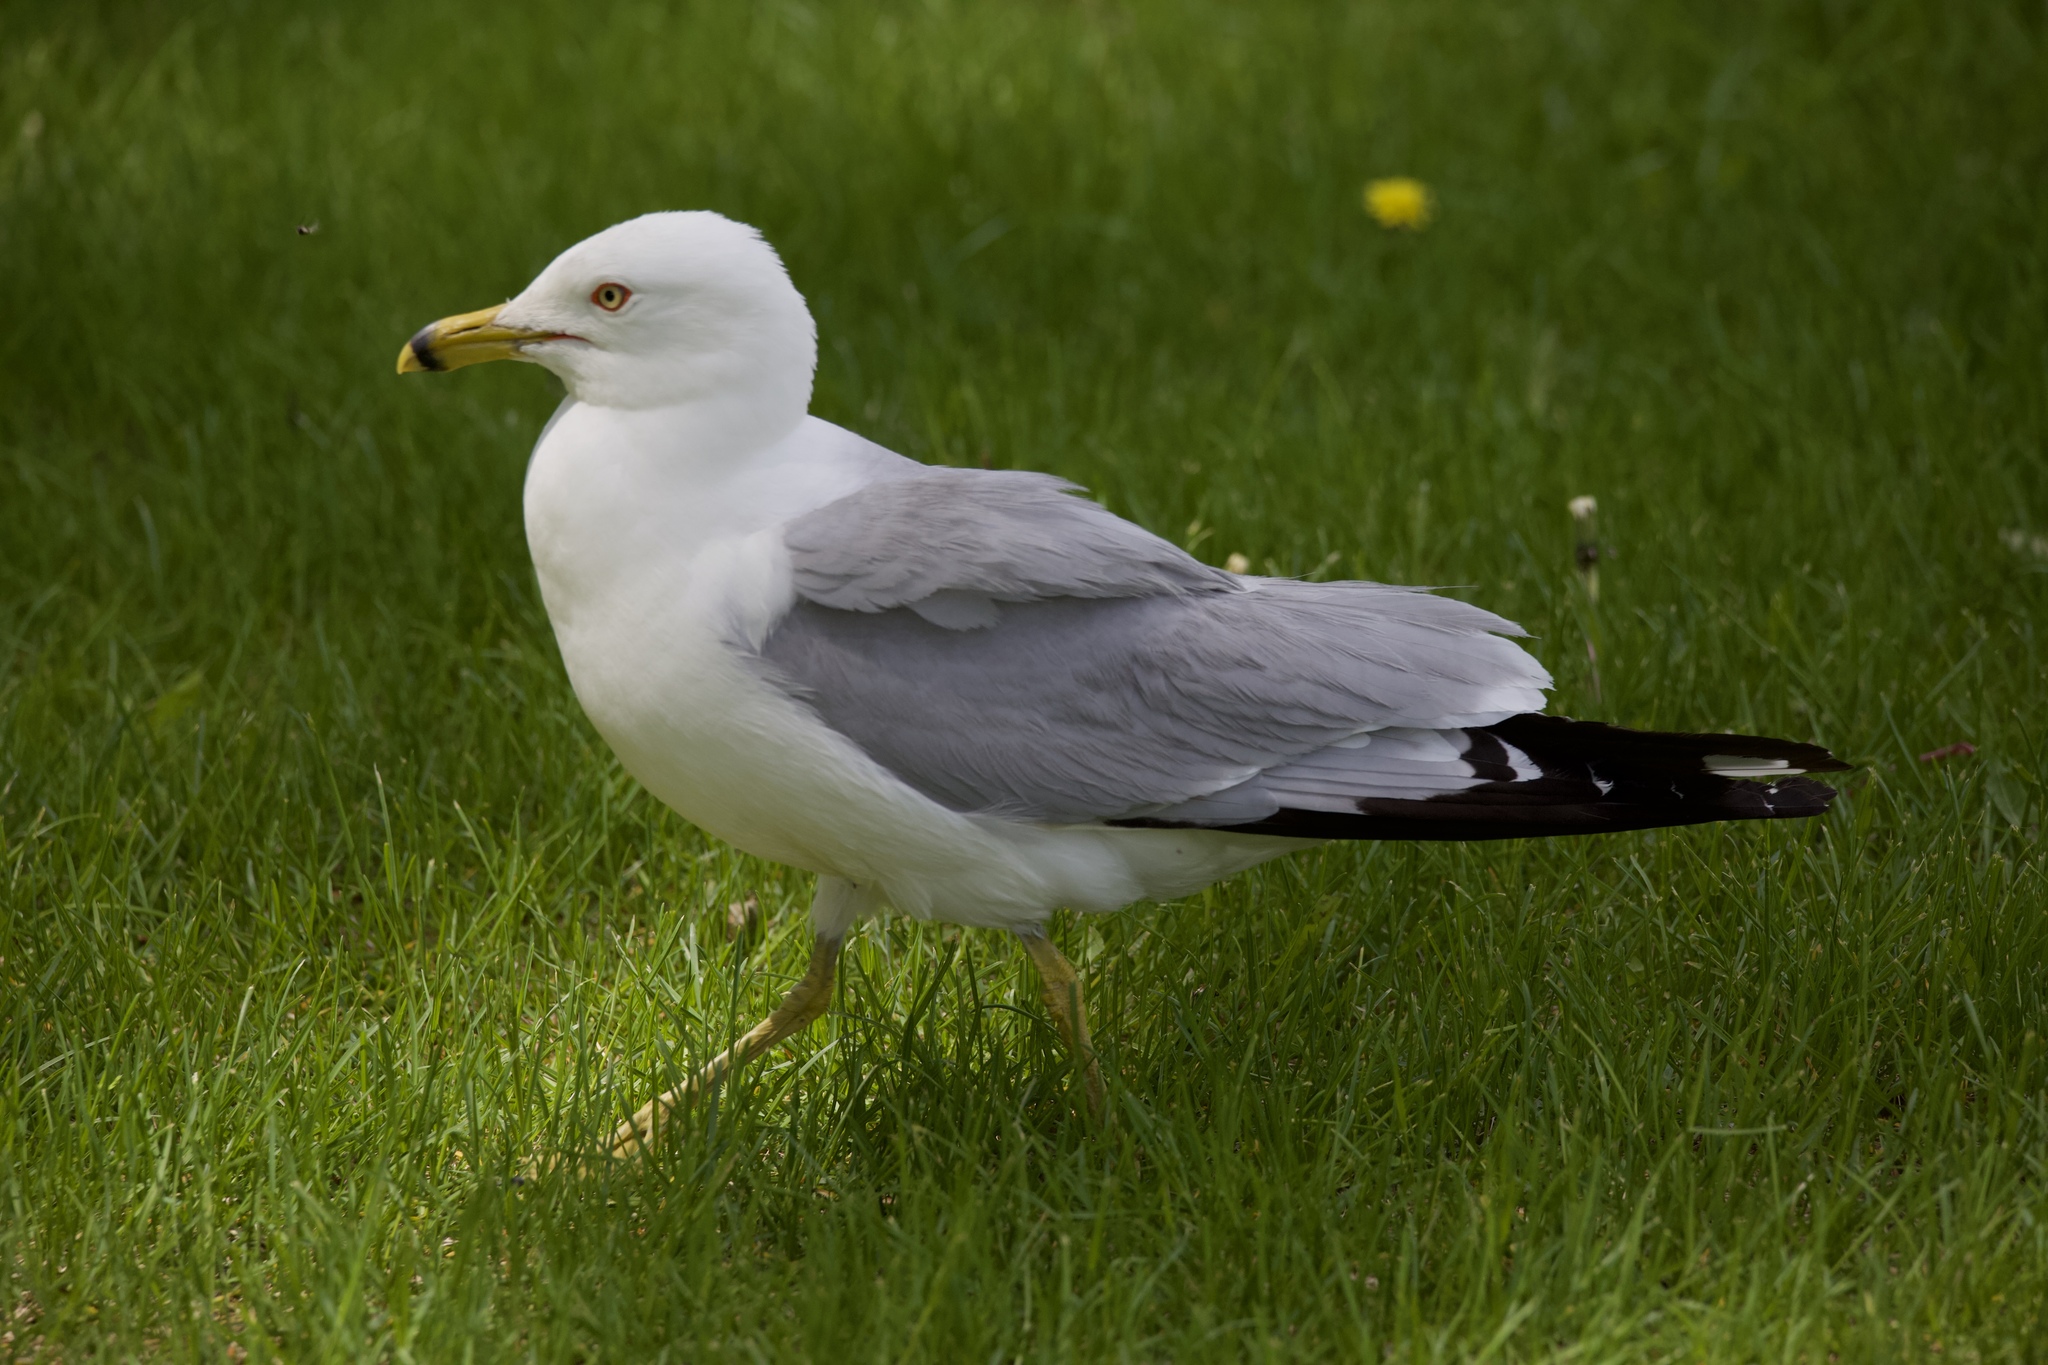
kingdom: Animalia
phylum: Chordata
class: Aves
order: Charadriiformes
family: Laridae
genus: Larus
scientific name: Larus delawarensis
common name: Ring-billed gull
